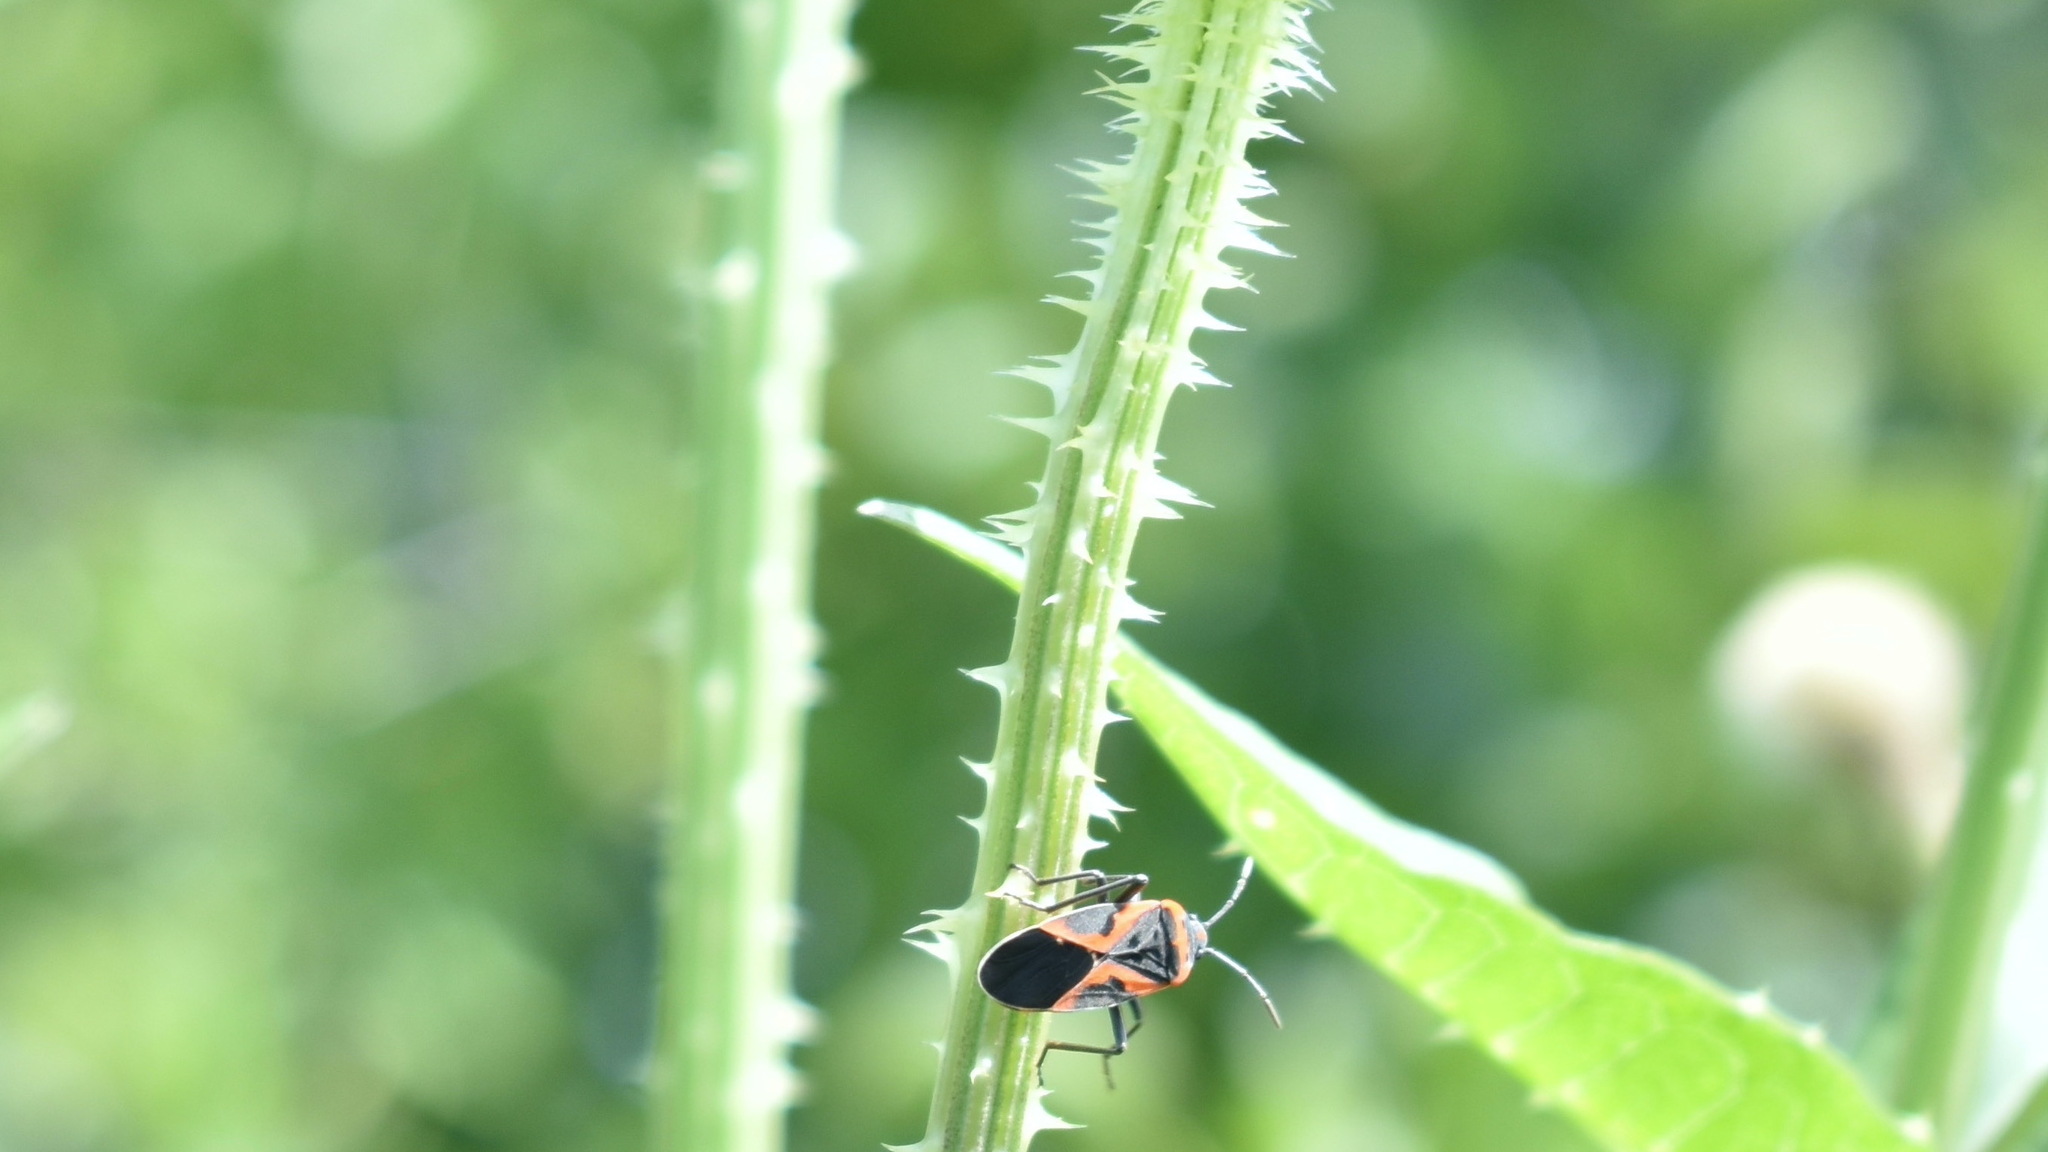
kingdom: Animalia
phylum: Arthropoda
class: Insecta
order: Hemiptera
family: Lygaeidae
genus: Lygaeus
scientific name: Lygaeus kalmii
